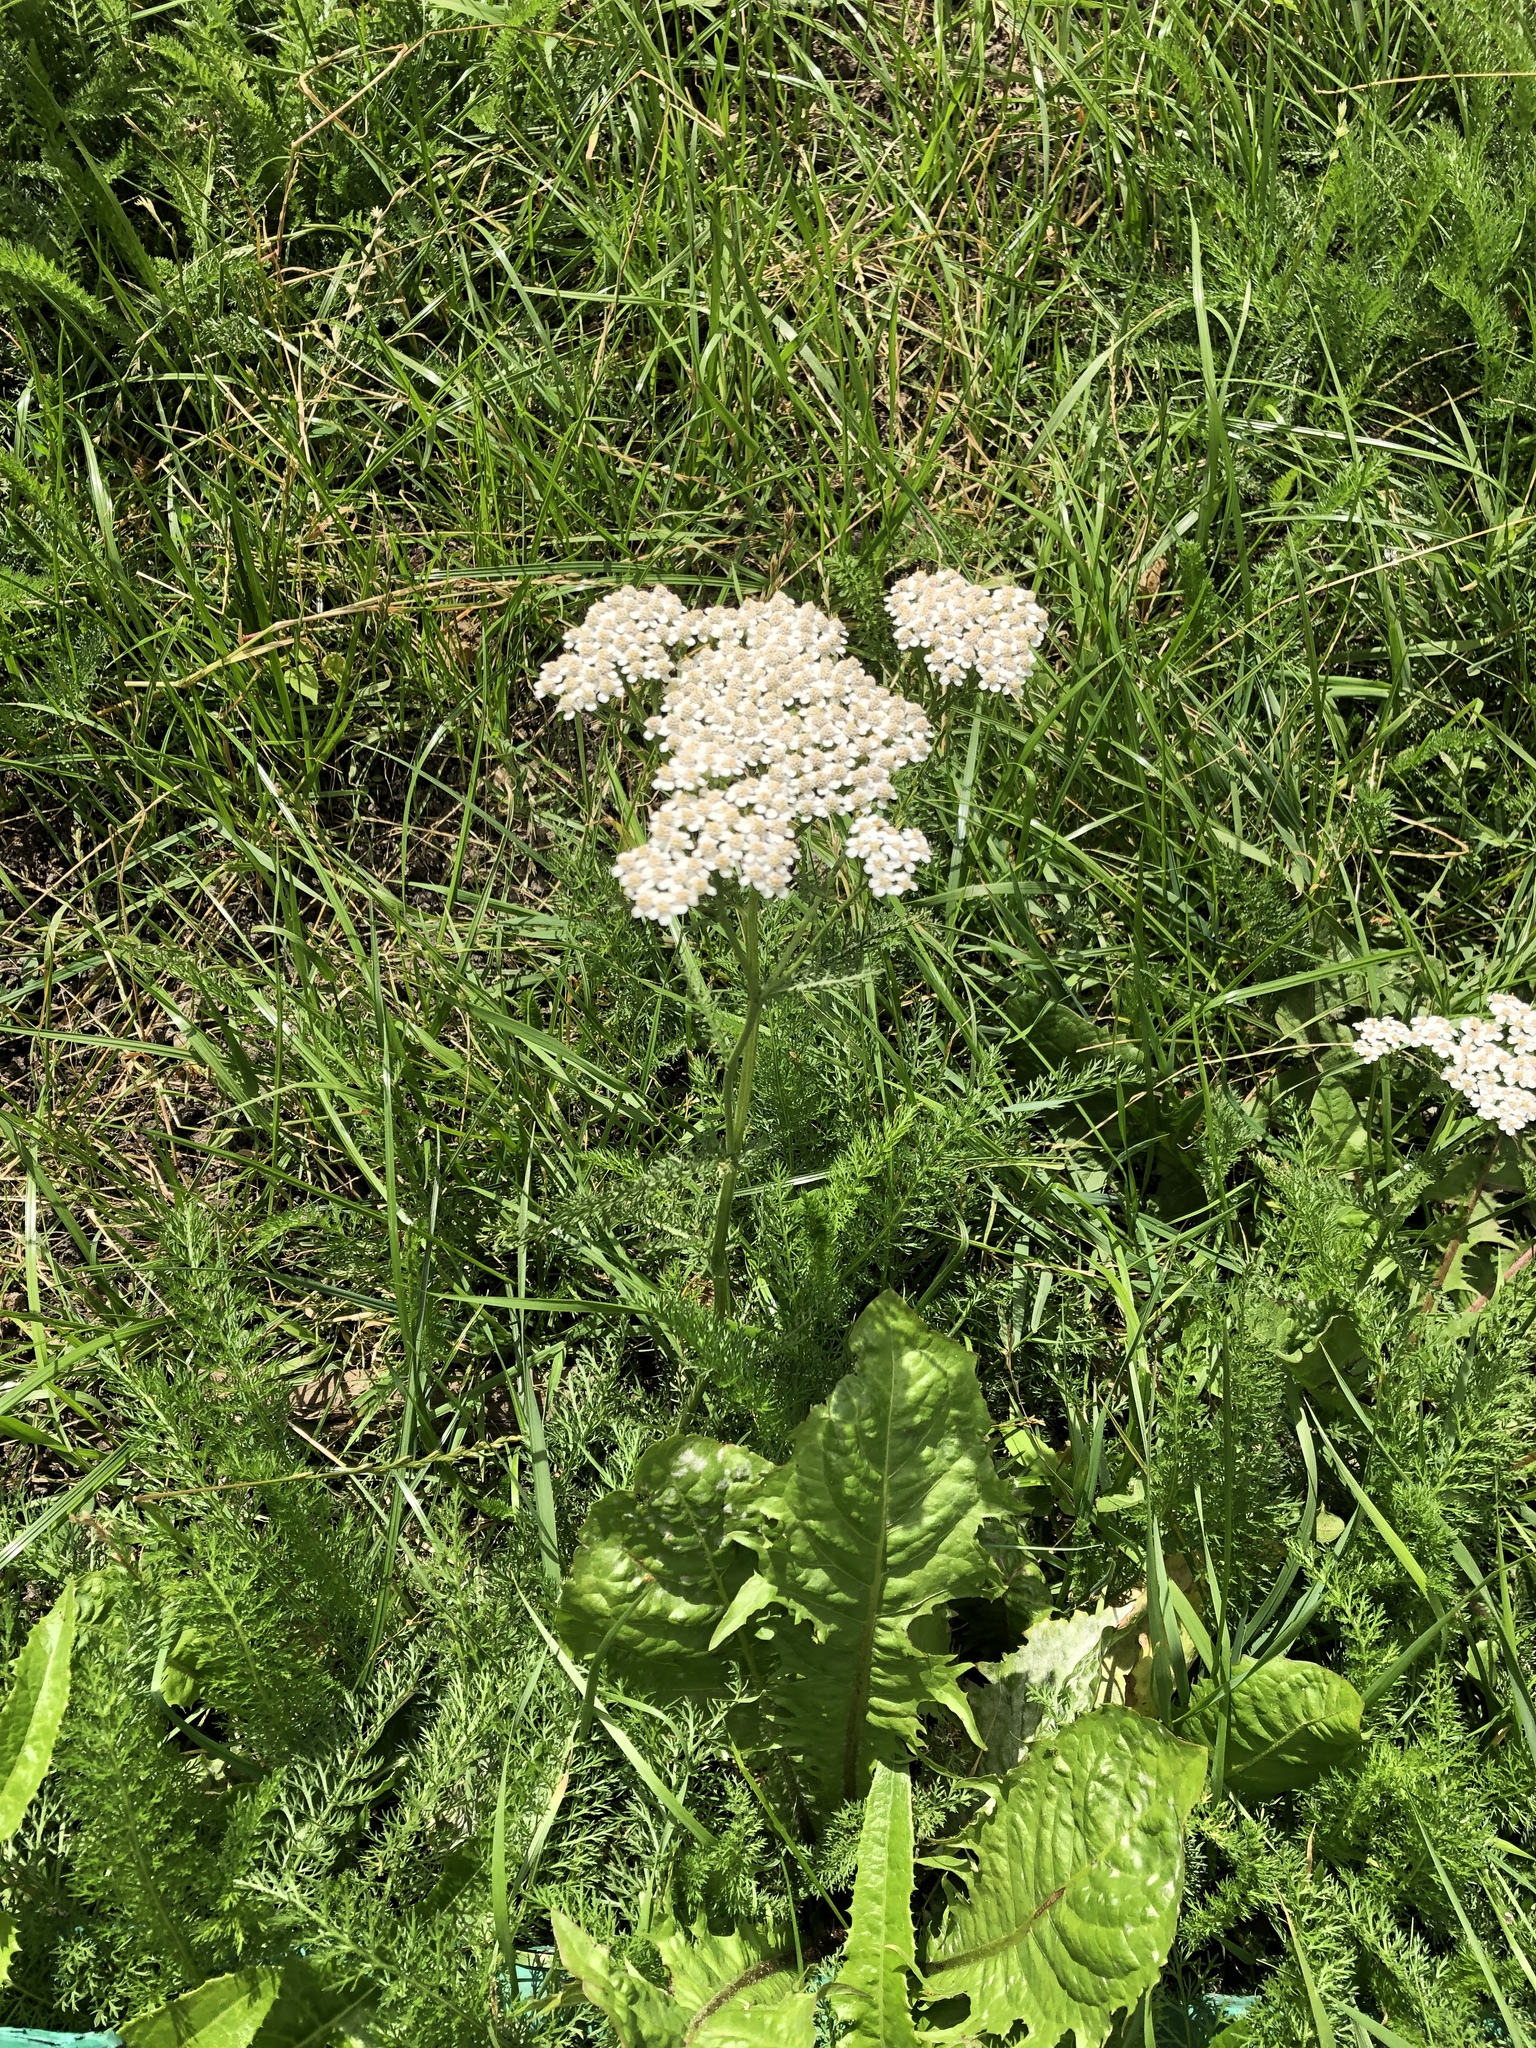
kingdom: Plantae
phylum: Tracheophyta
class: Magnoliopsida
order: Asterales
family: Asteraceae
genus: Achillea
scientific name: Achillea millefolium
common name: Yarrow
